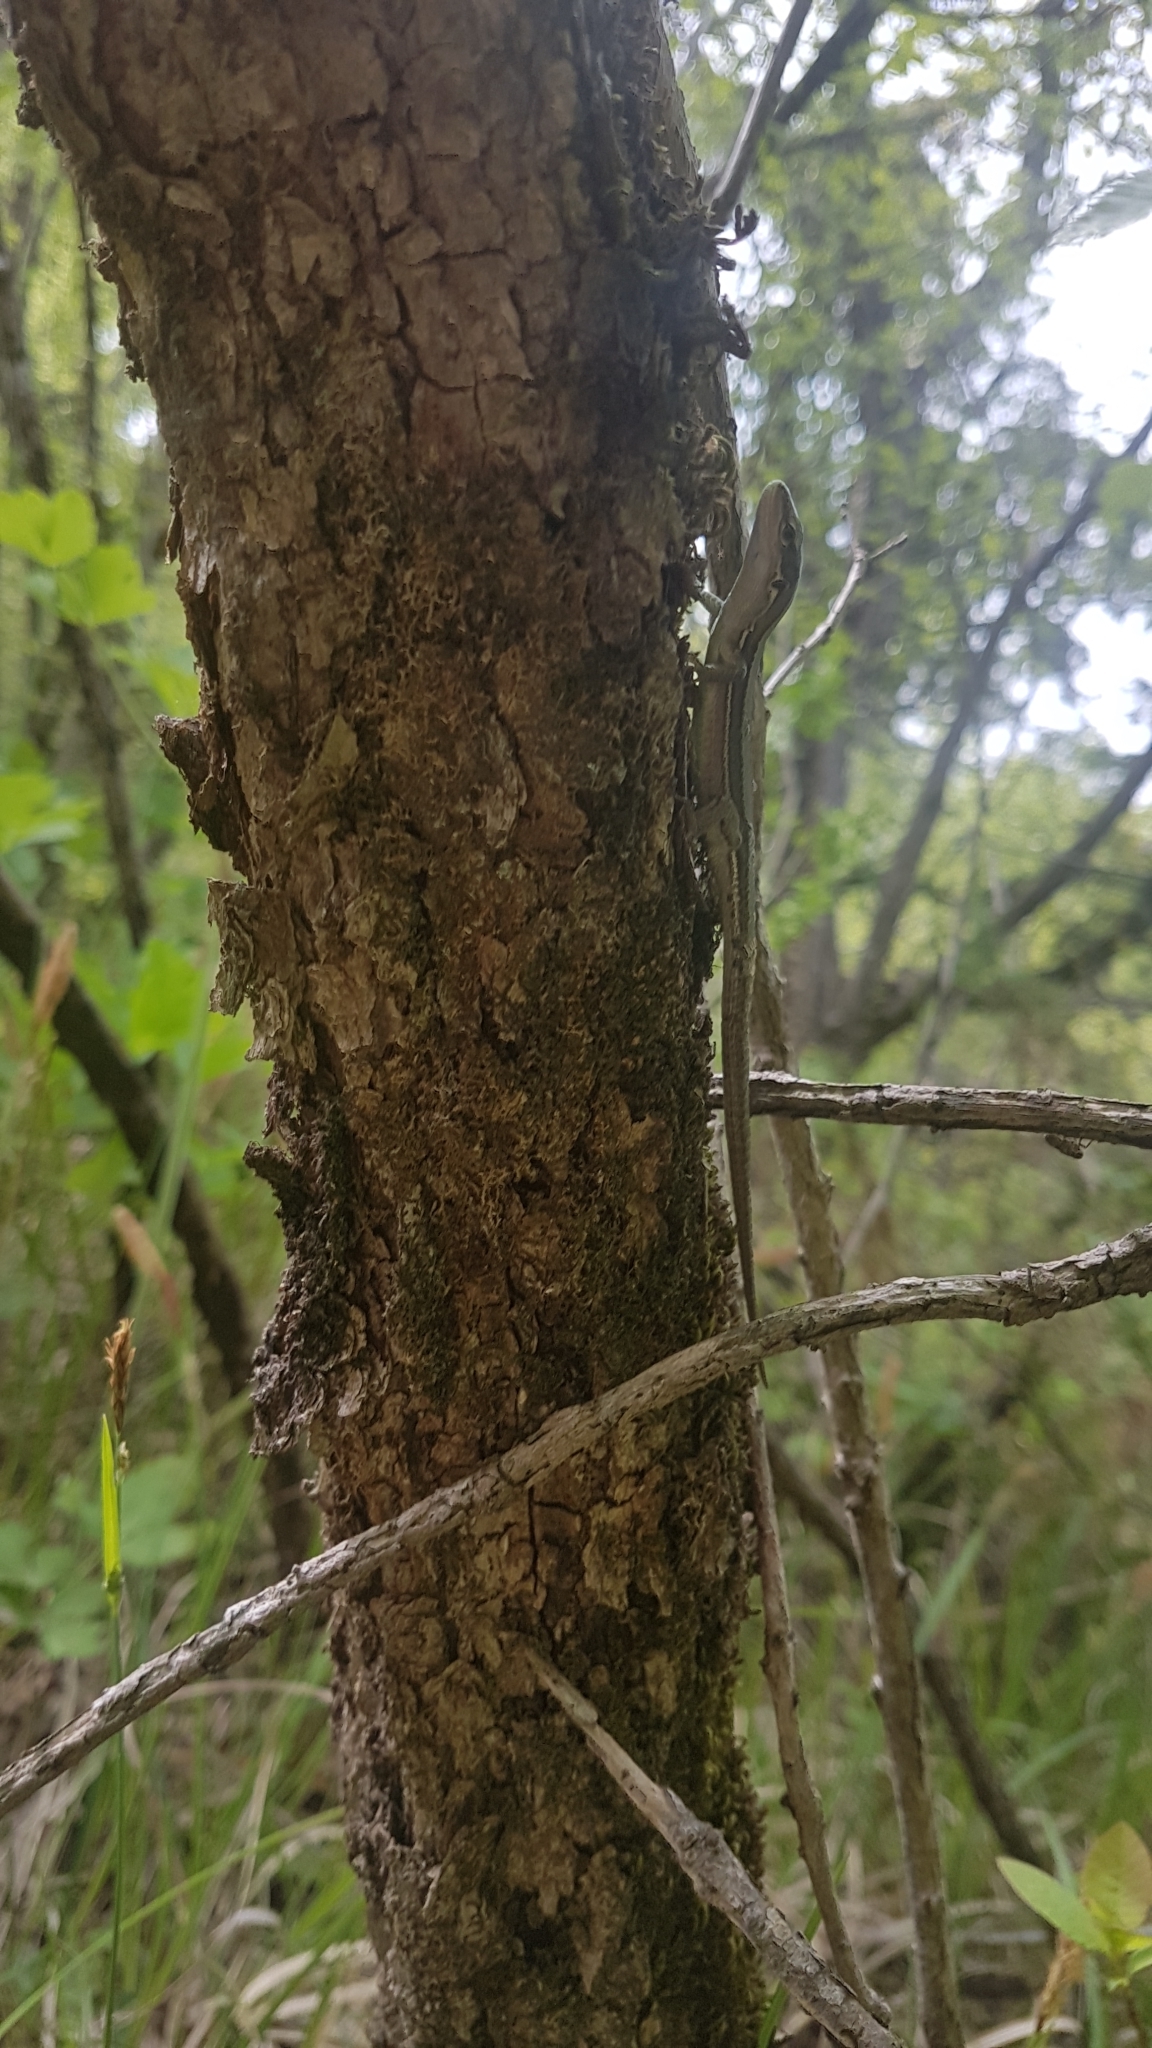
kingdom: Animalia
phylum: Chordata
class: Squamata
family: Lacertidae
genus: Darevskia
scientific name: Darevskia praticola
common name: Meadow lizard
